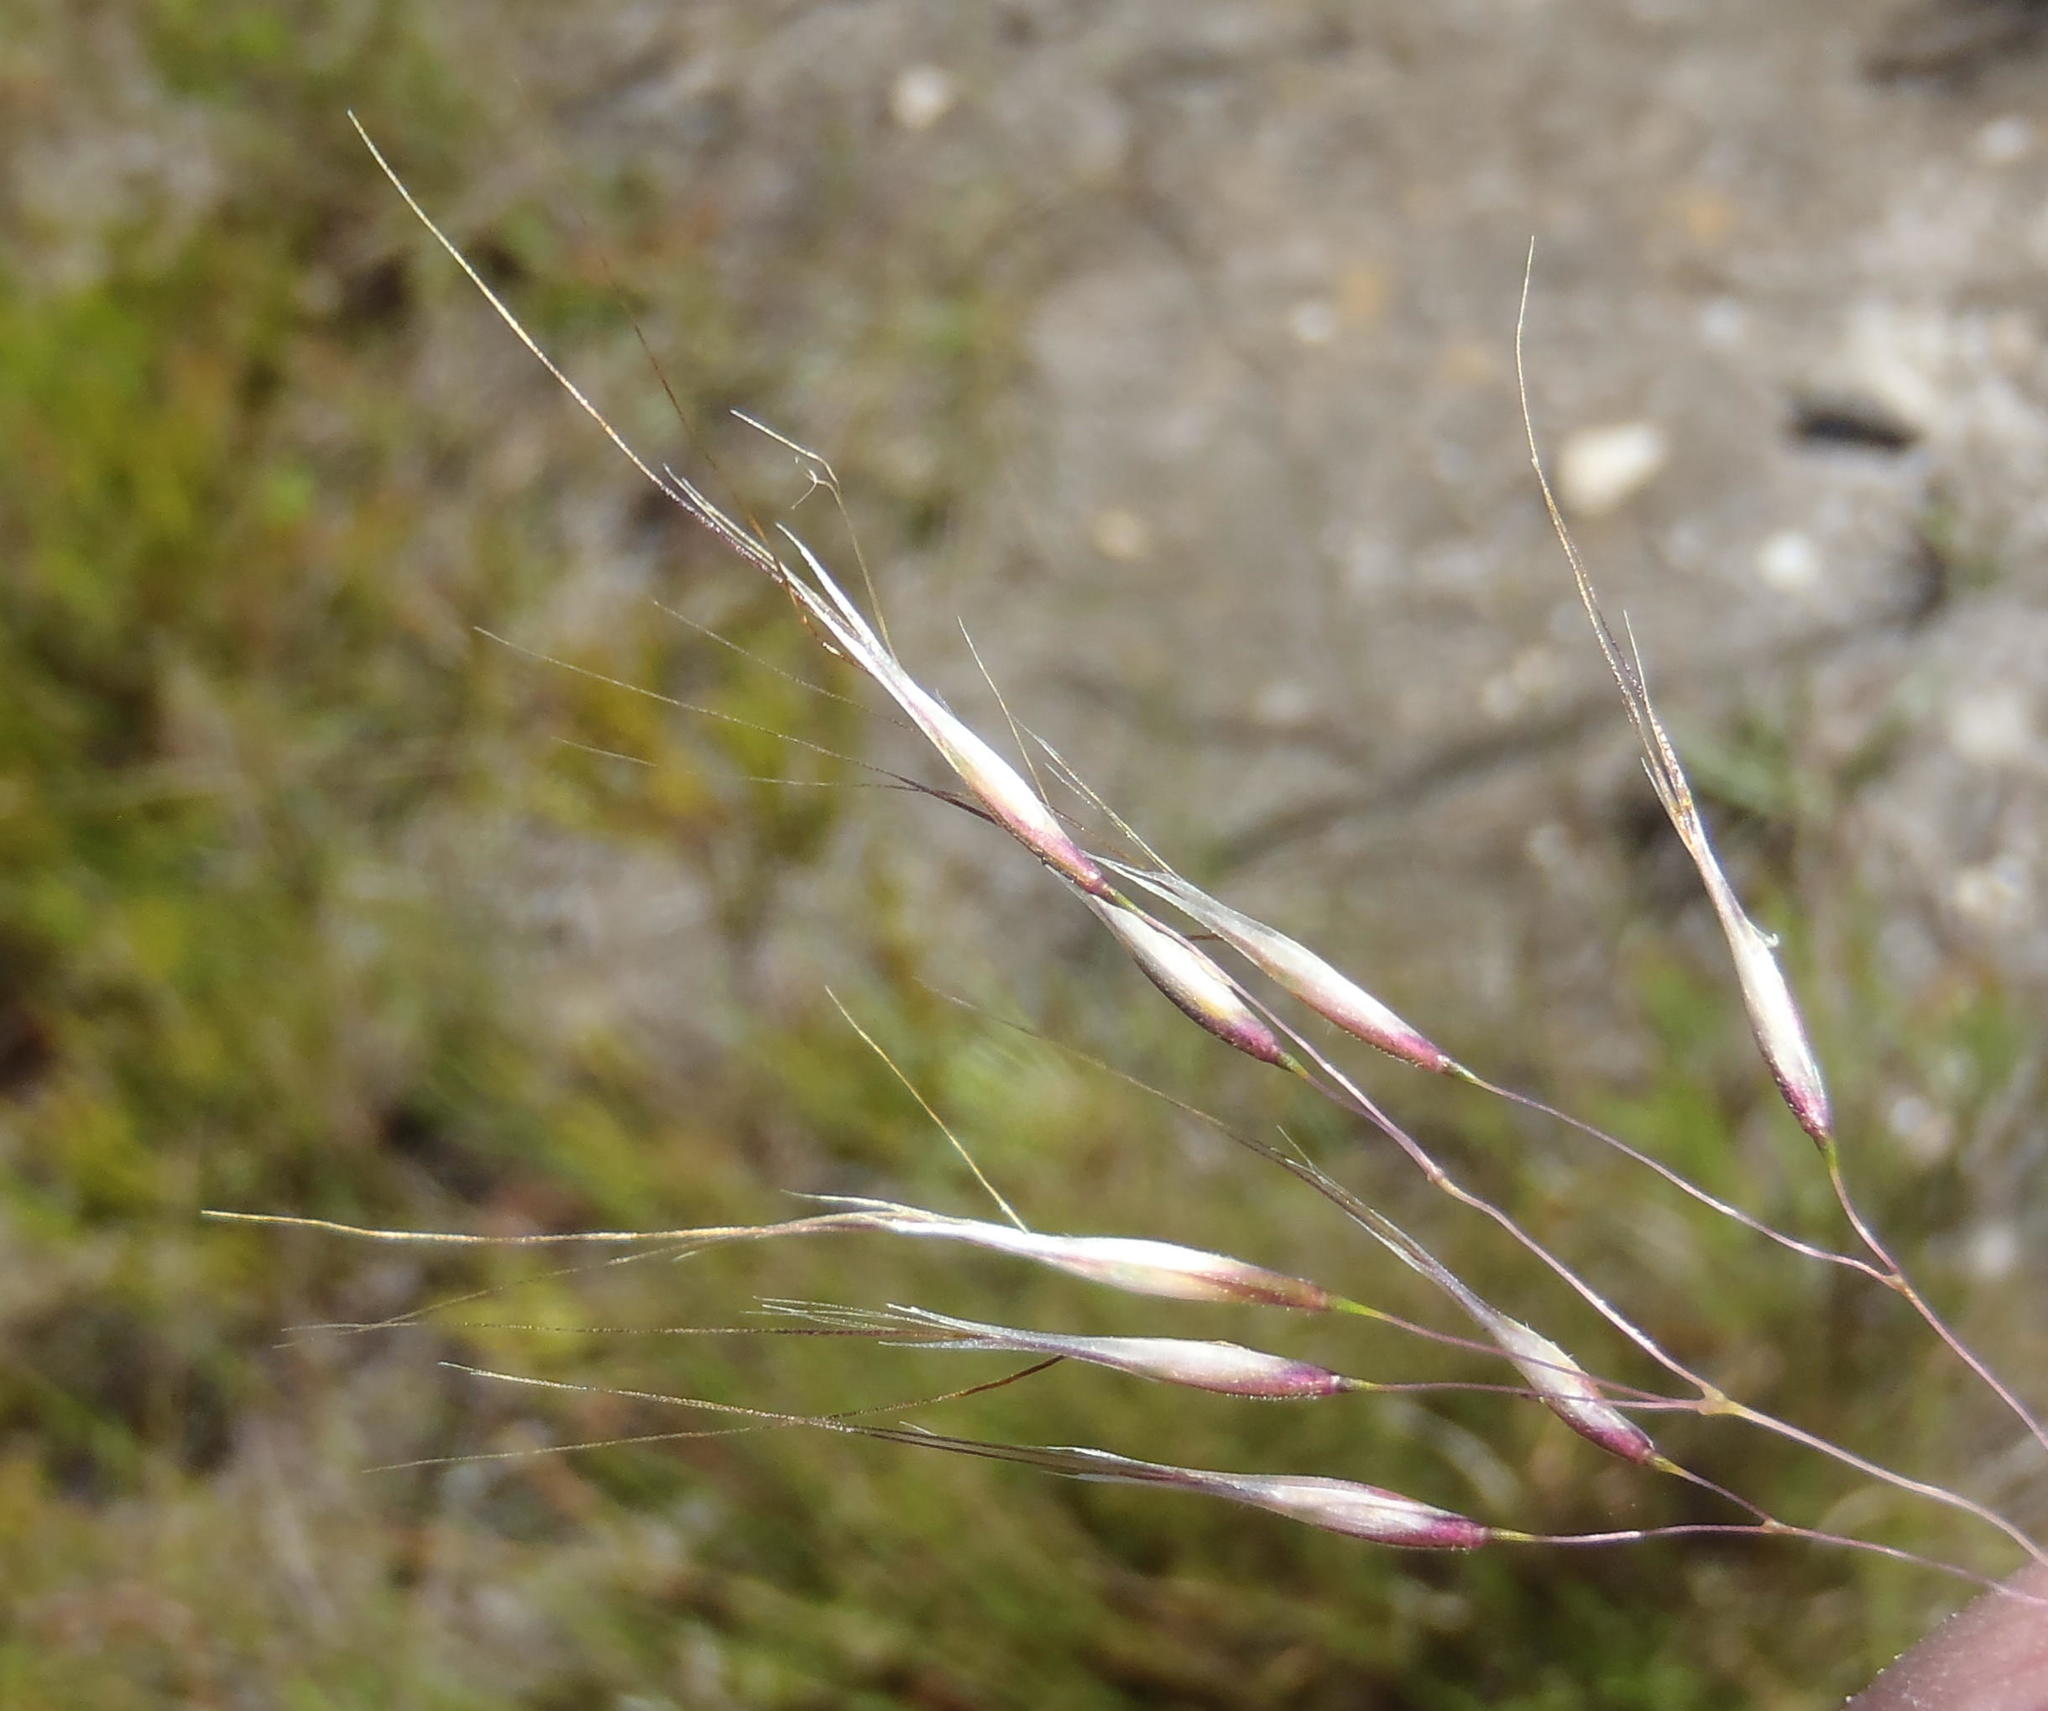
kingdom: Plantae
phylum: Tracheophyta
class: Liliopsida
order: Poales
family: Poaceae
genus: Pentameris
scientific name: Pentameris macrocalycina
